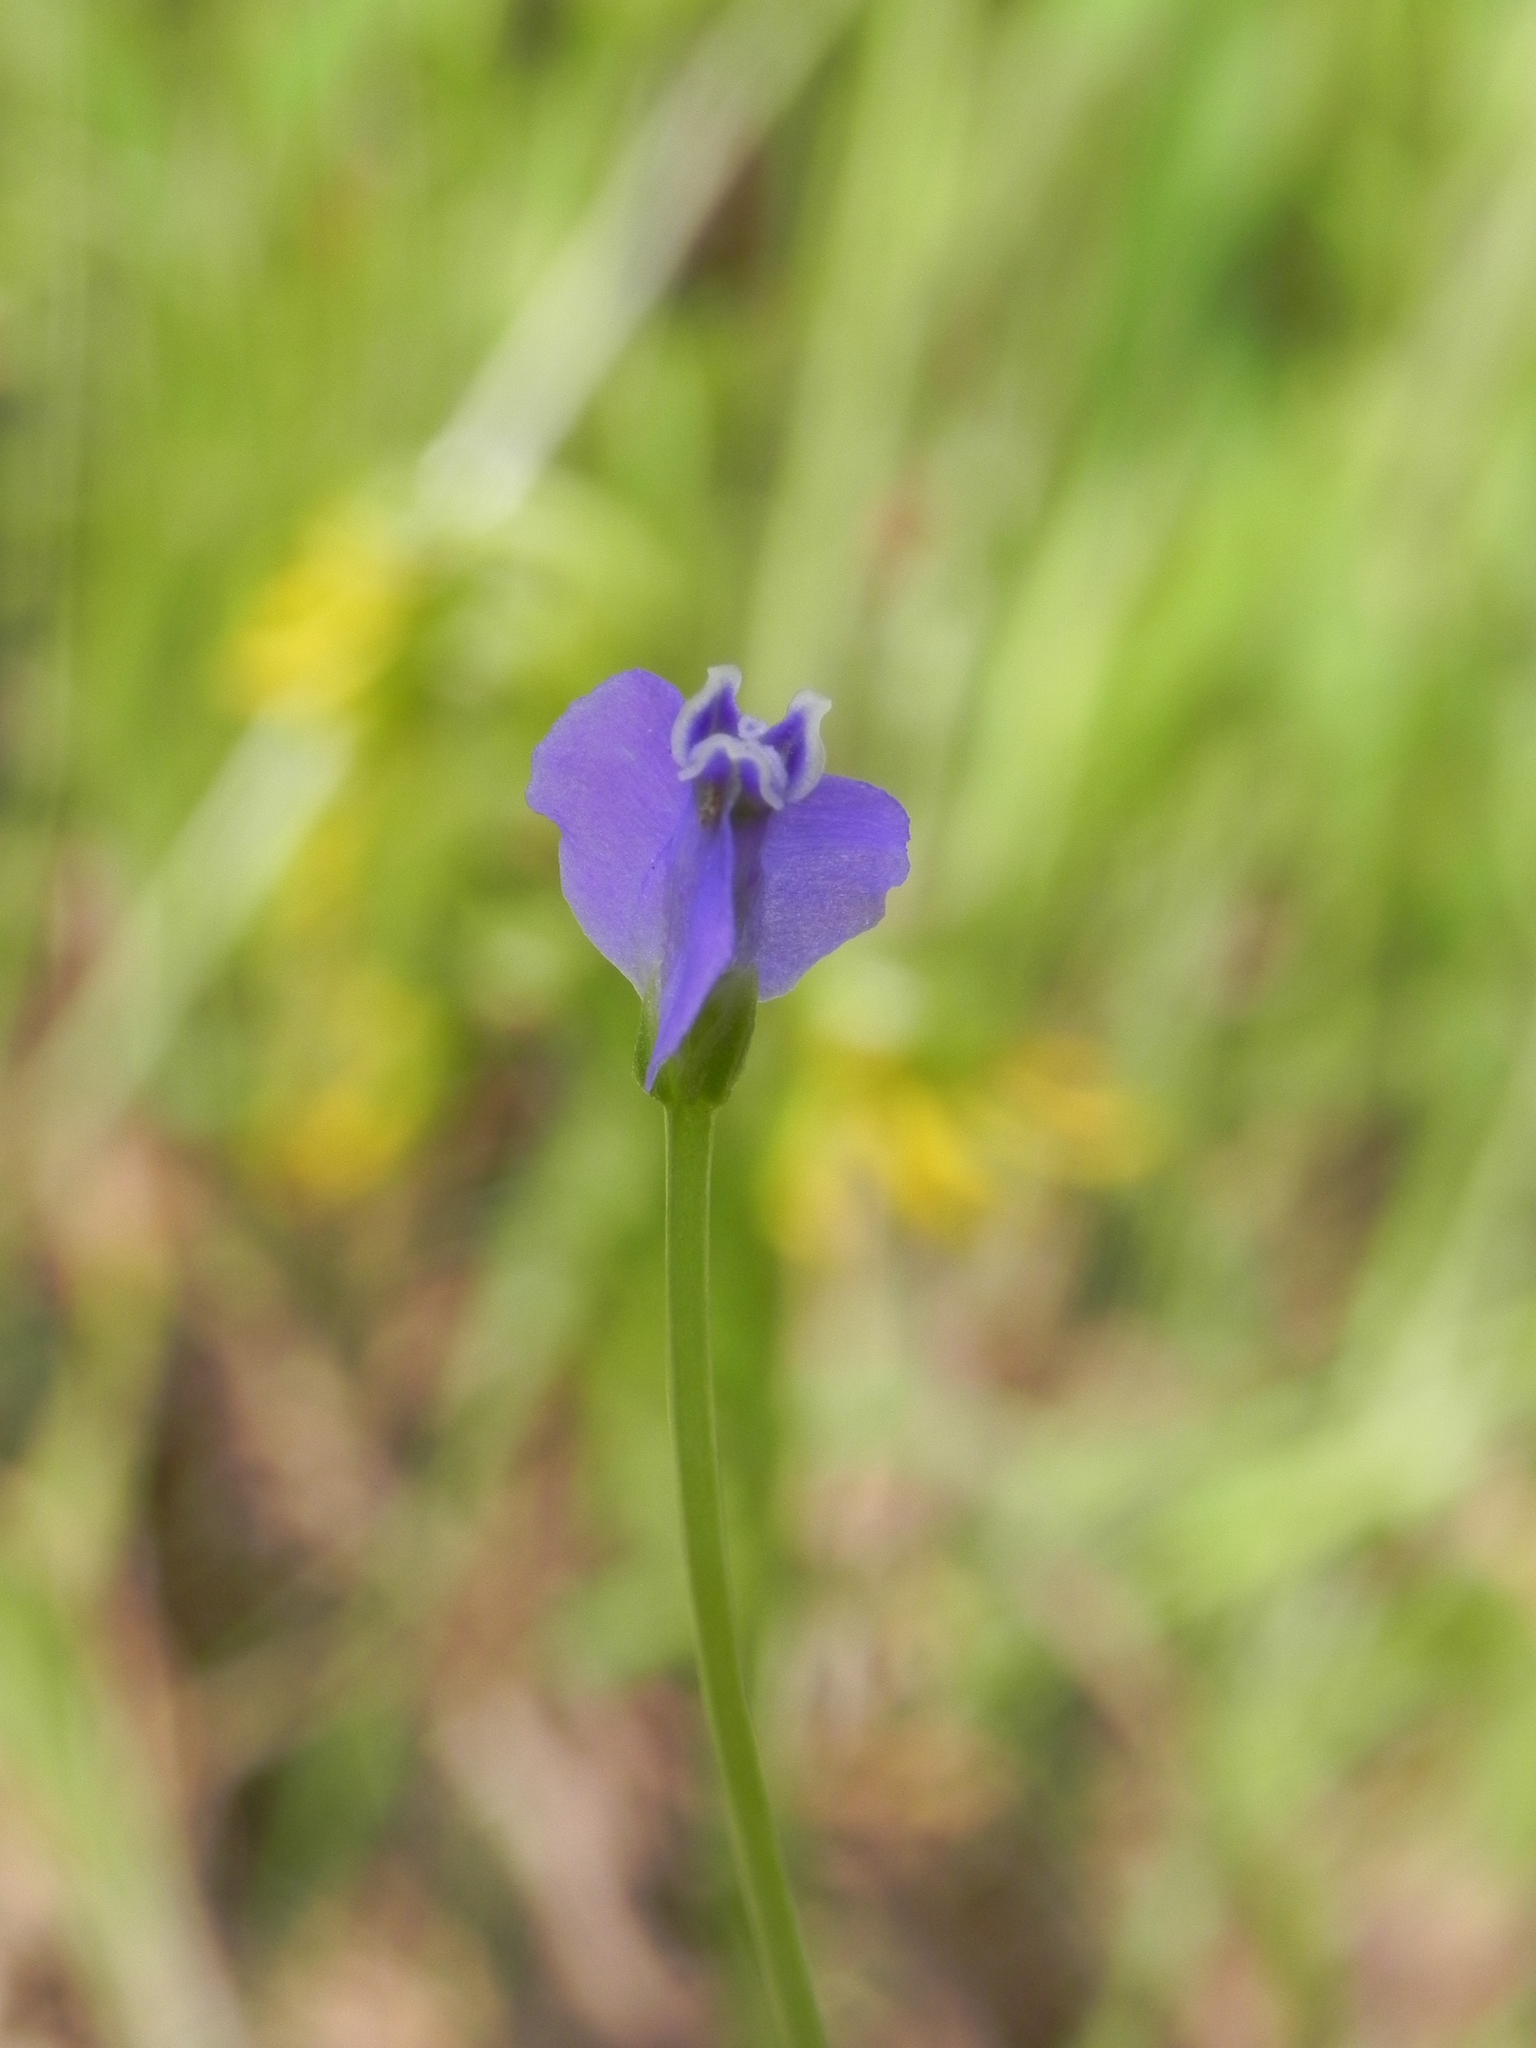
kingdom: Plantae
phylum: Tracheophyta
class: Liliopsida
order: Dioscoreales
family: Burmanniaceae
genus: Burmannia
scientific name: Burmannia pusilla
